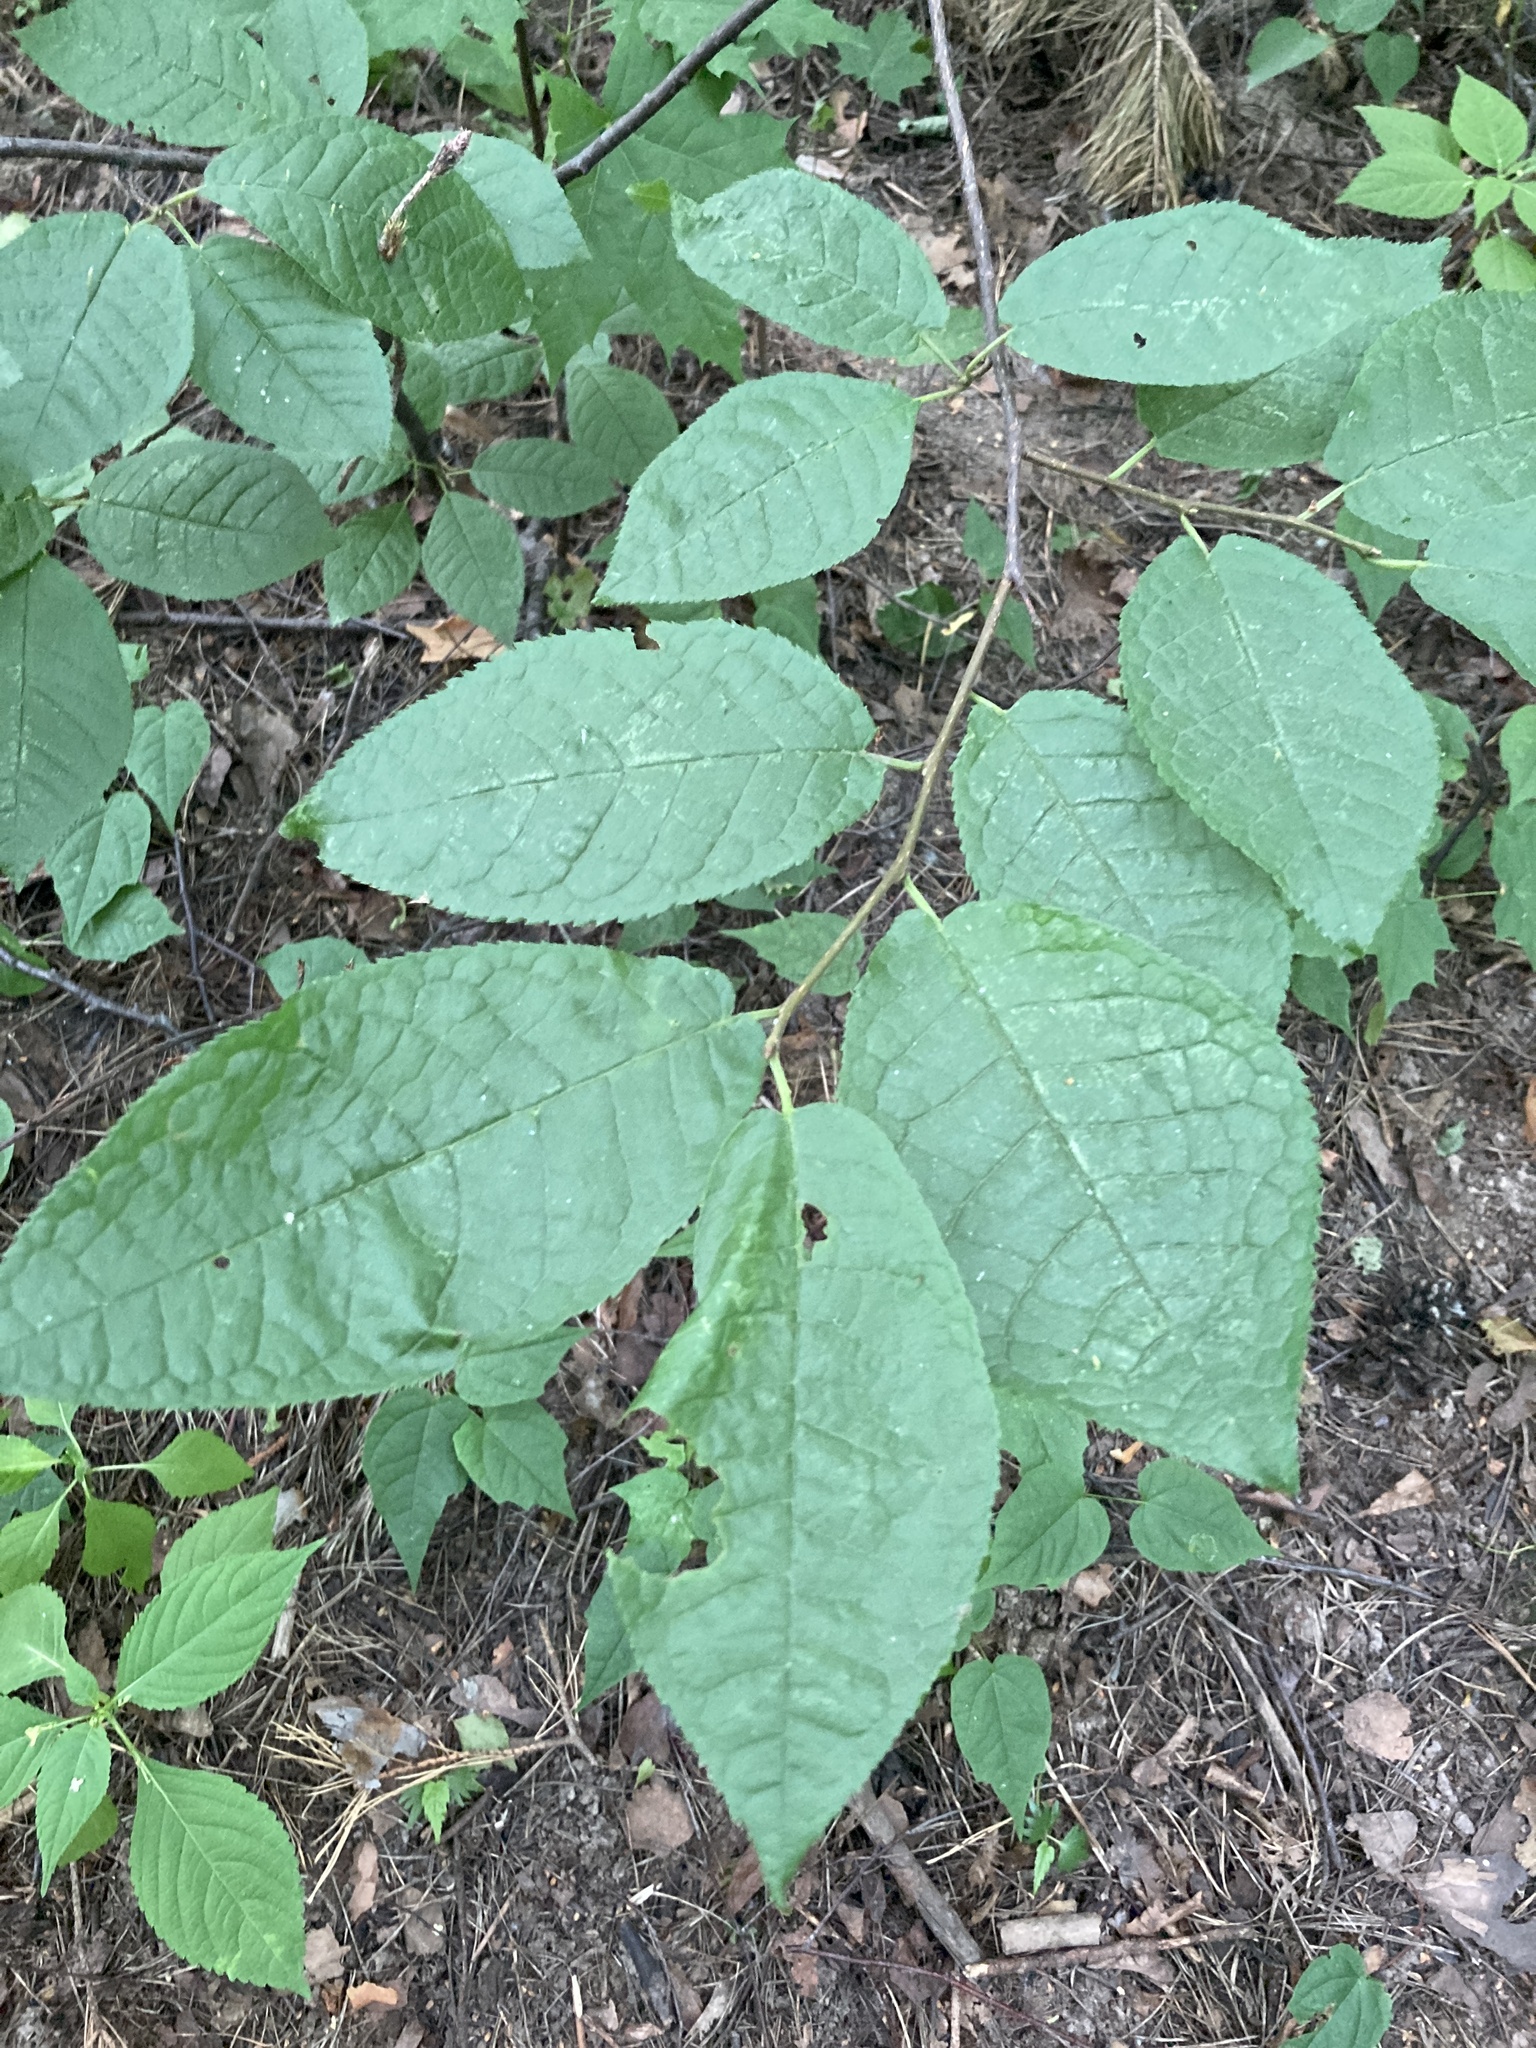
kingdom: Plantae
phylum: Tracheophyta
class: Magnoliopsida
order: Rosales
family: Rosaceae
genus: Prunus
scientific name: Prunus padus
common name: Bird cherry
